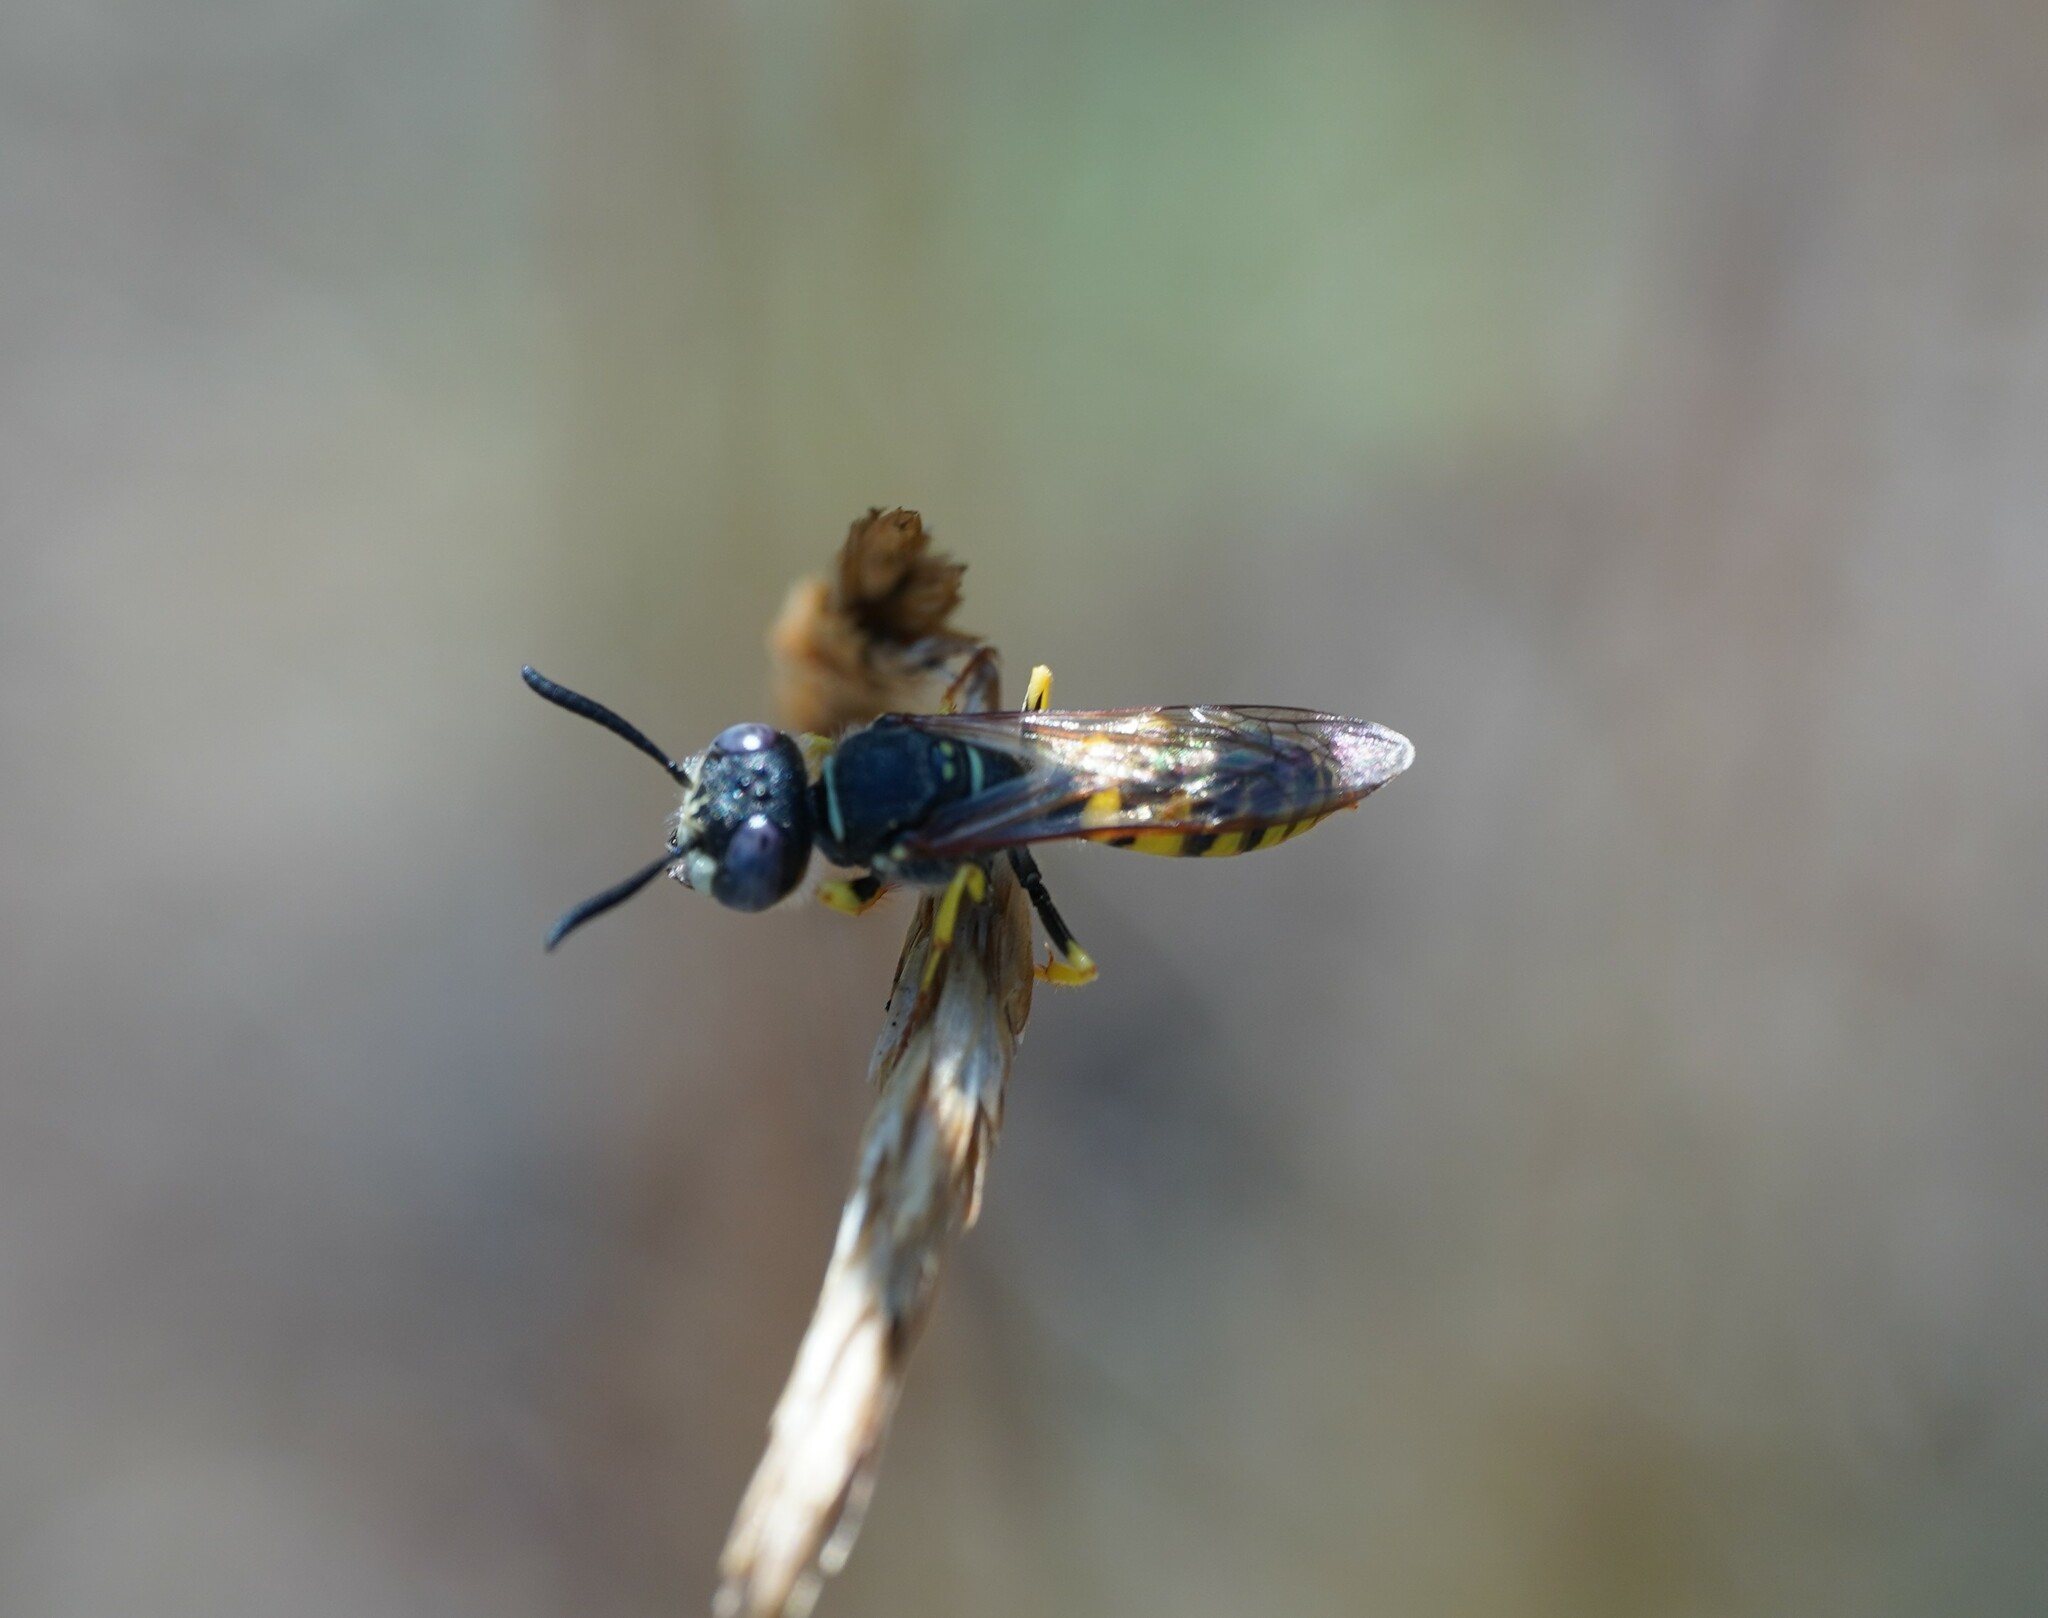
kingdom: Animalia
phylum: Arthropoda
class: Insecta
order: Hymenoptera
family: Crabronidae
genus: Philanthus
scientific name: Philanthus triangulum
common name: Bee wolf
